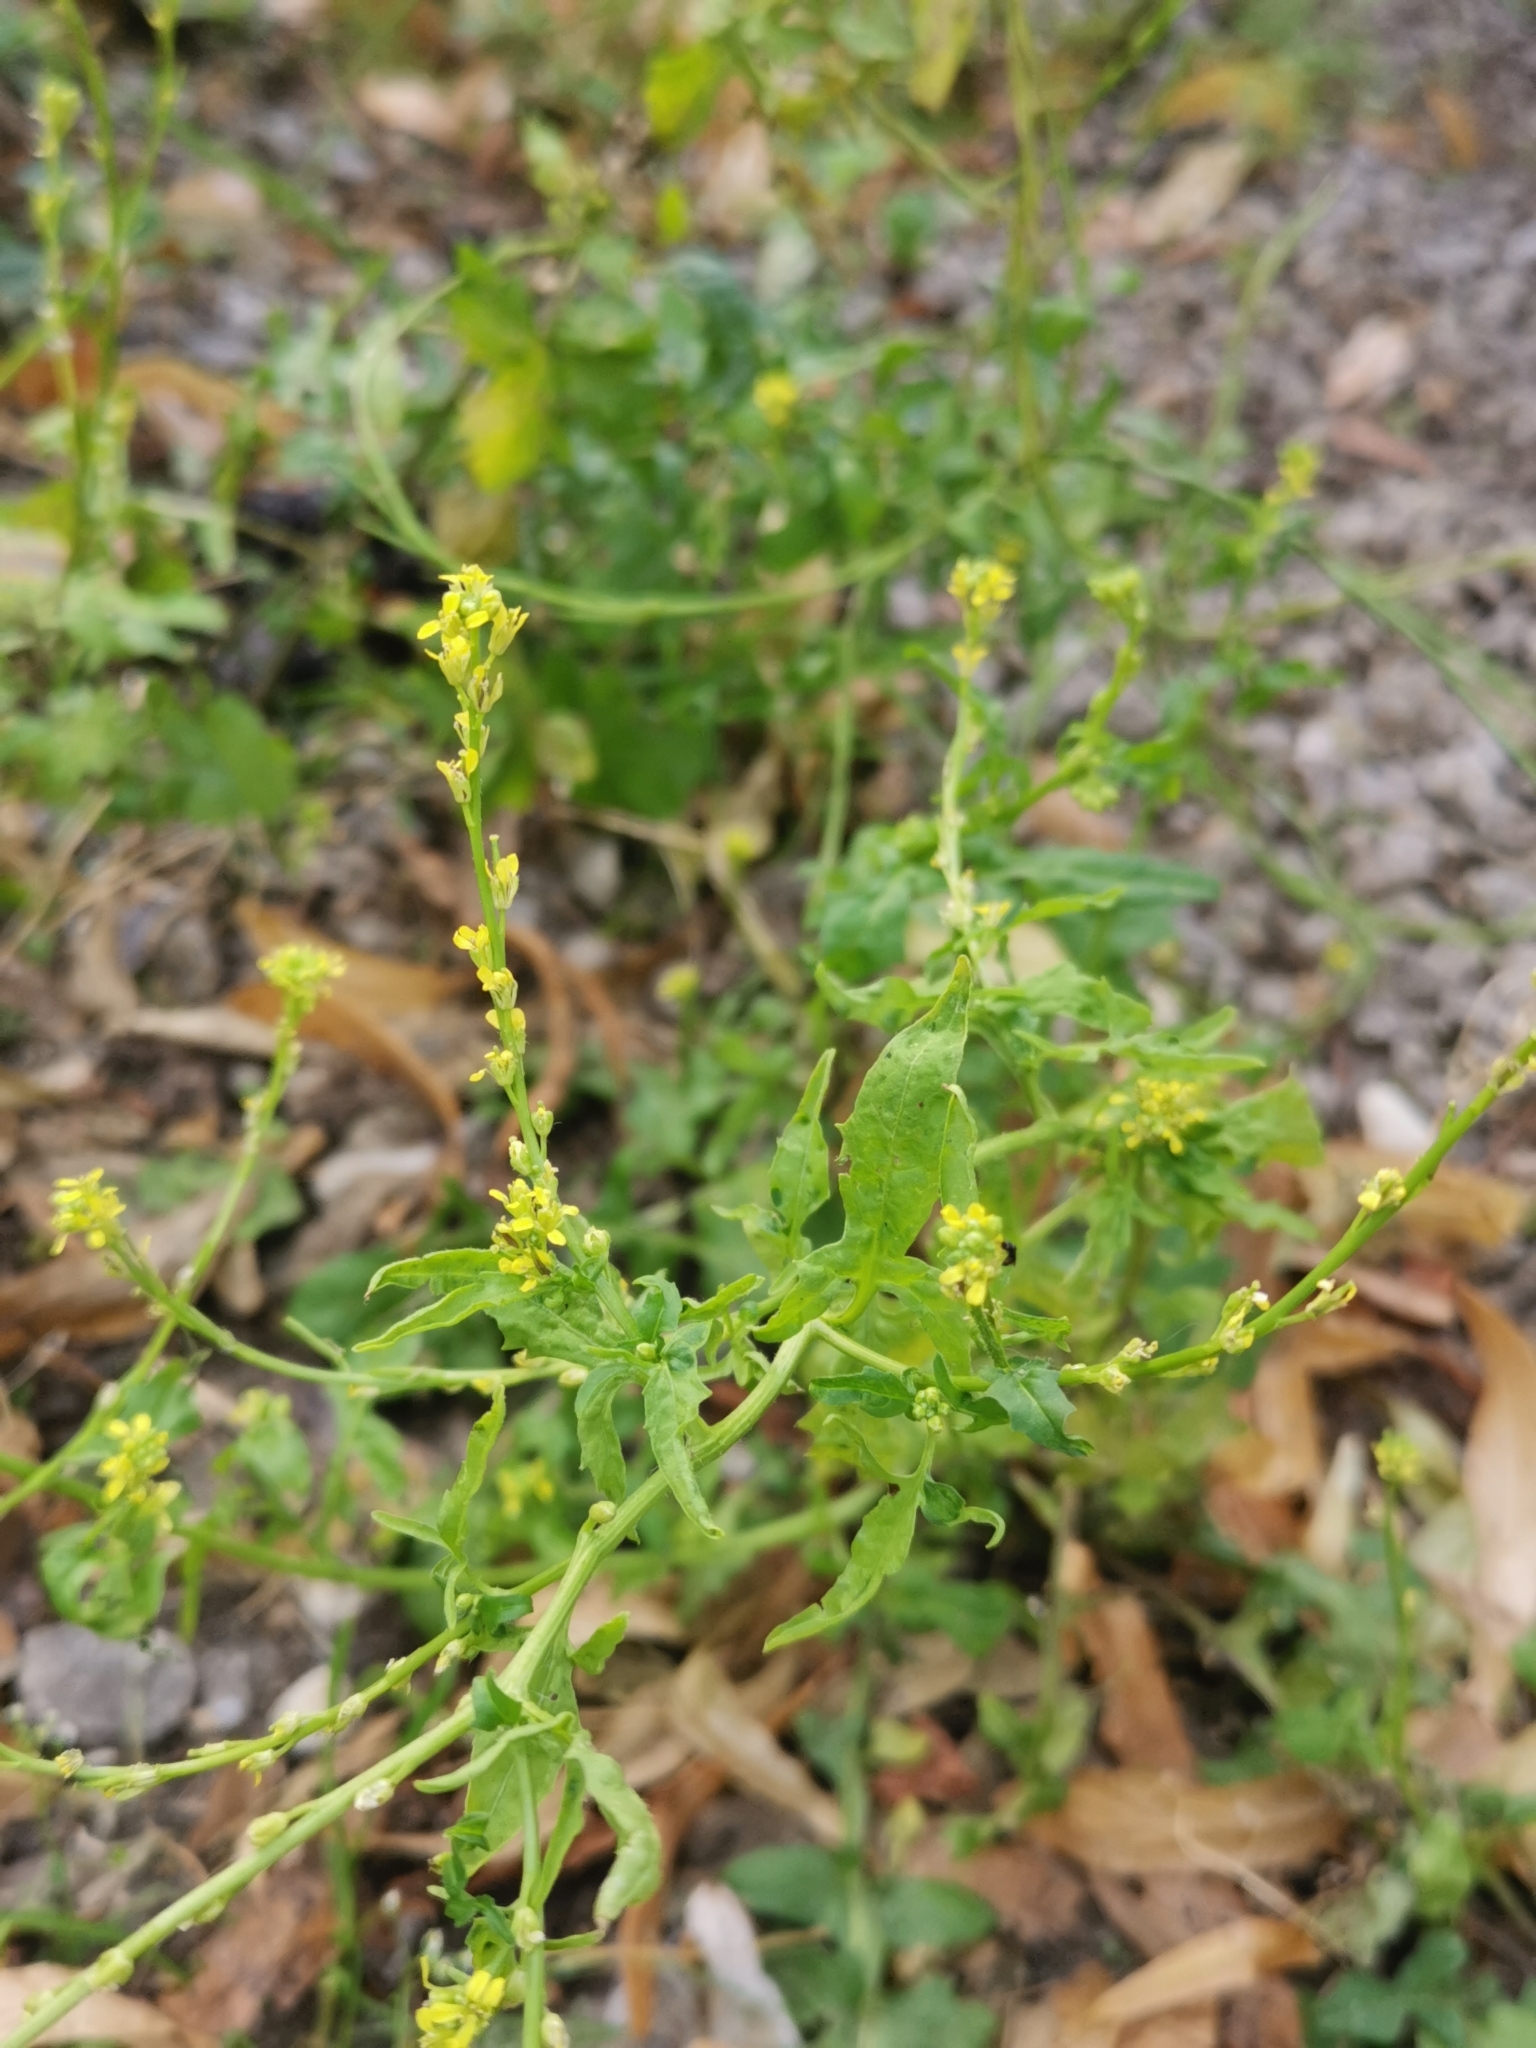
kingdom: Plantae
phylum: Tracheophyta
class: Magnoliopsida
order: Brassicales
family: Brassicaceae
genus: Sisymbrium
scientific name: Sisymbrium officinale
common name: Hedge mustard
